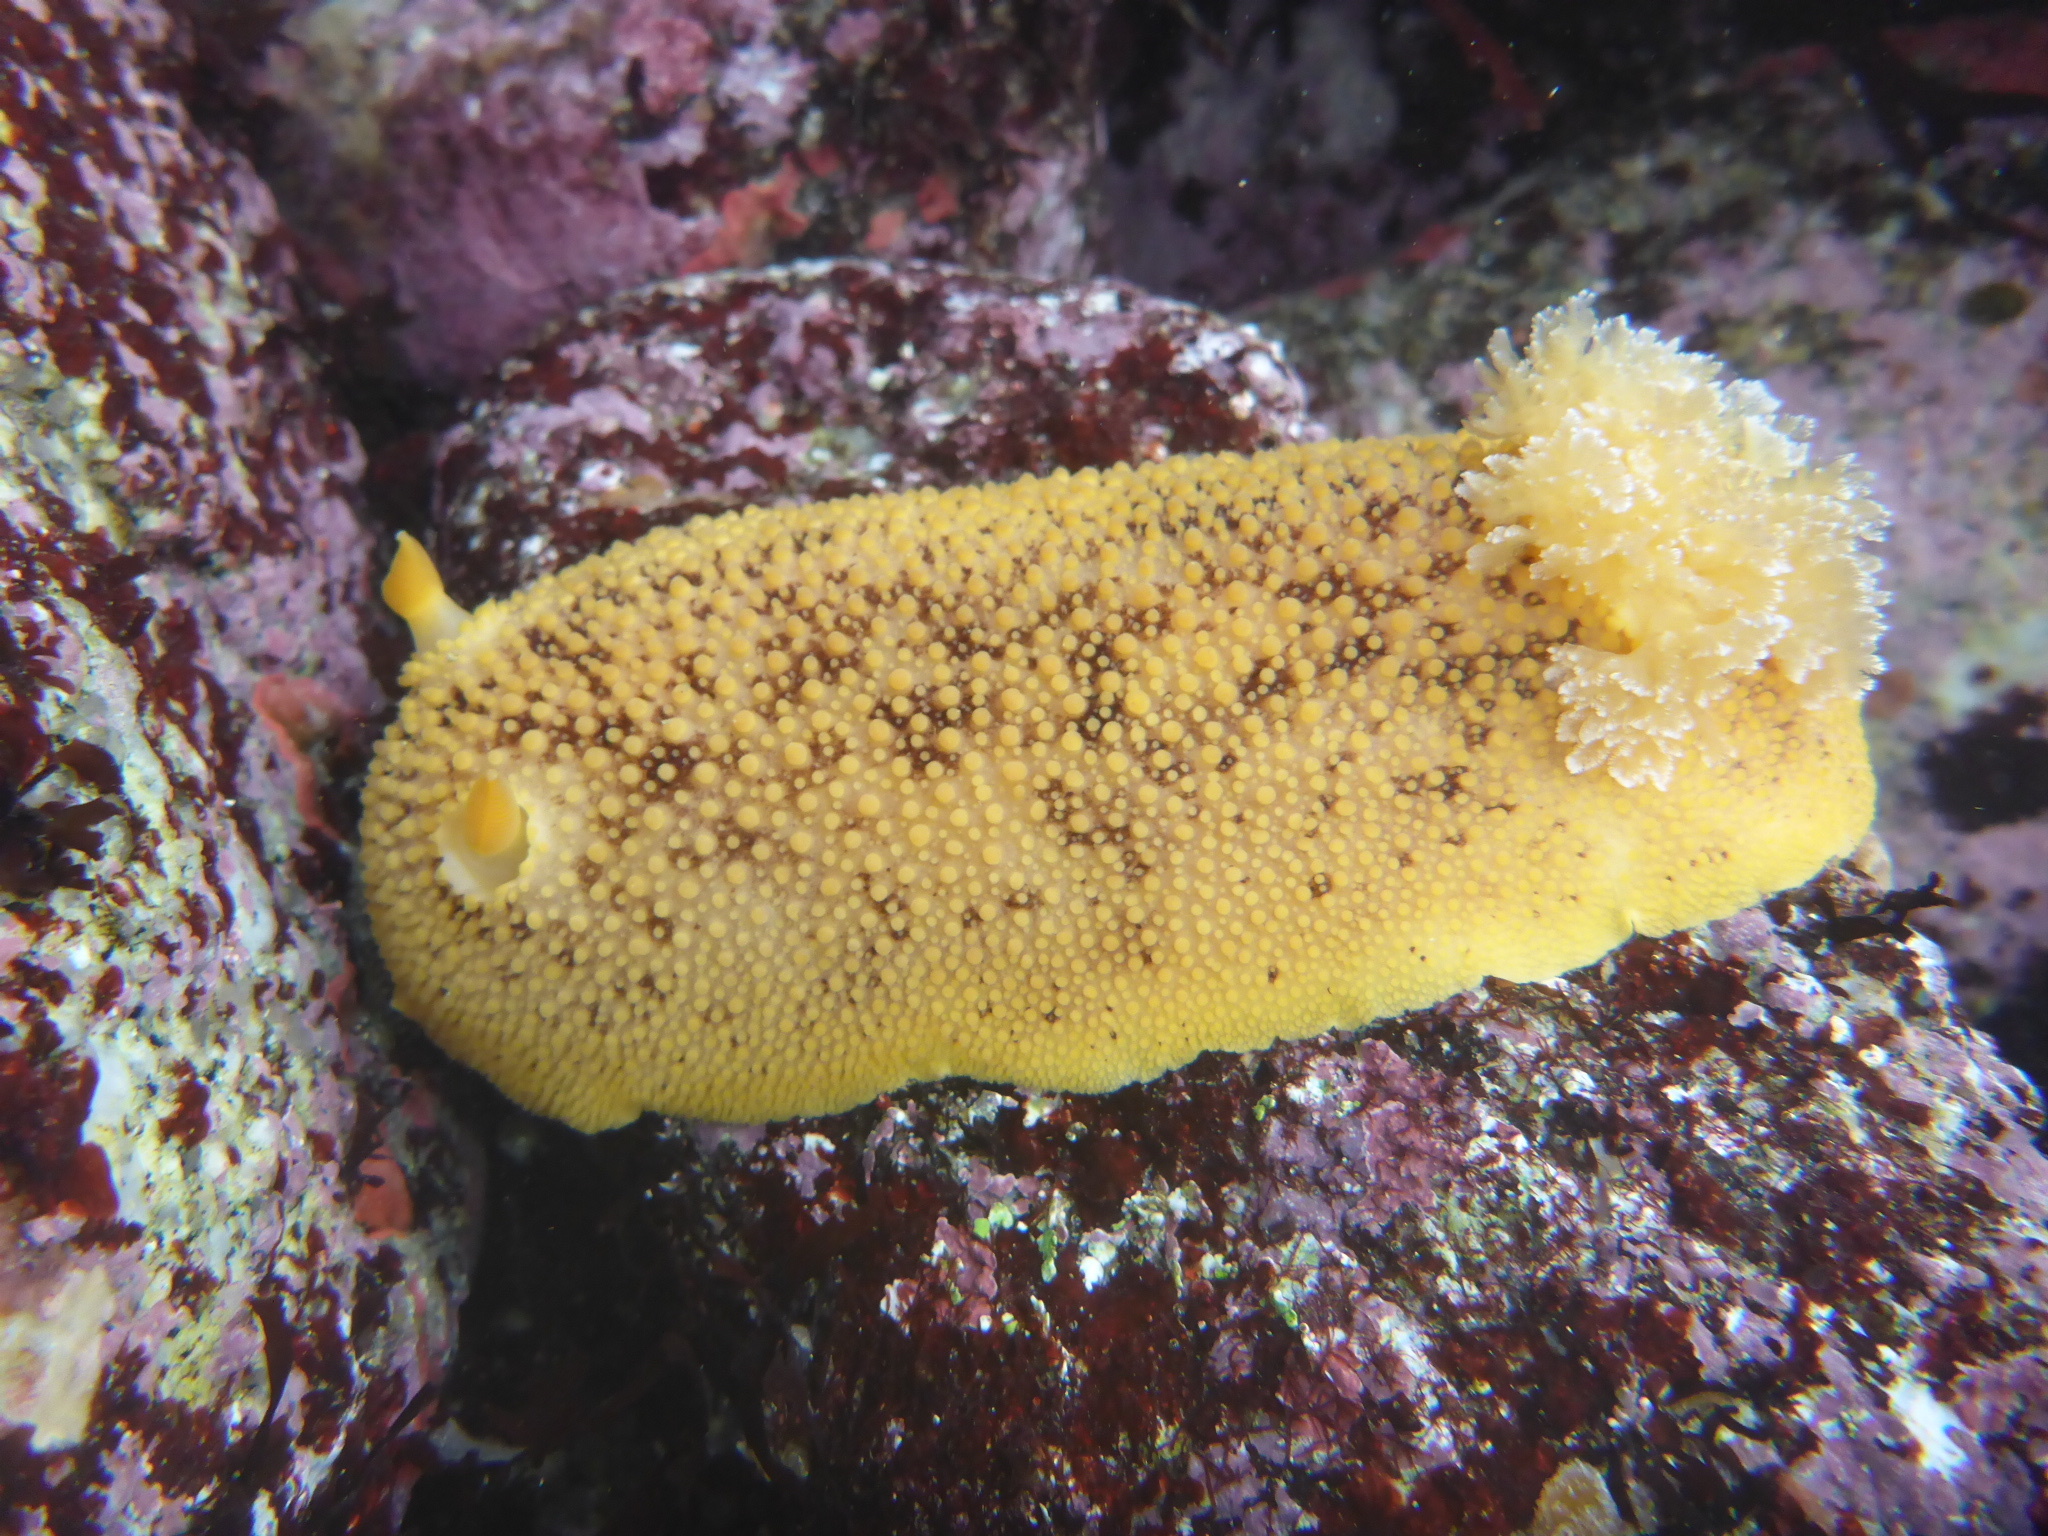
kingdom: Animalia
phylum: Mollusca
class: Gastropoda
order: Nudibranchia
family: Discodorididae
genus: Peltodoris
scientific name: Peltodoris nobilis
